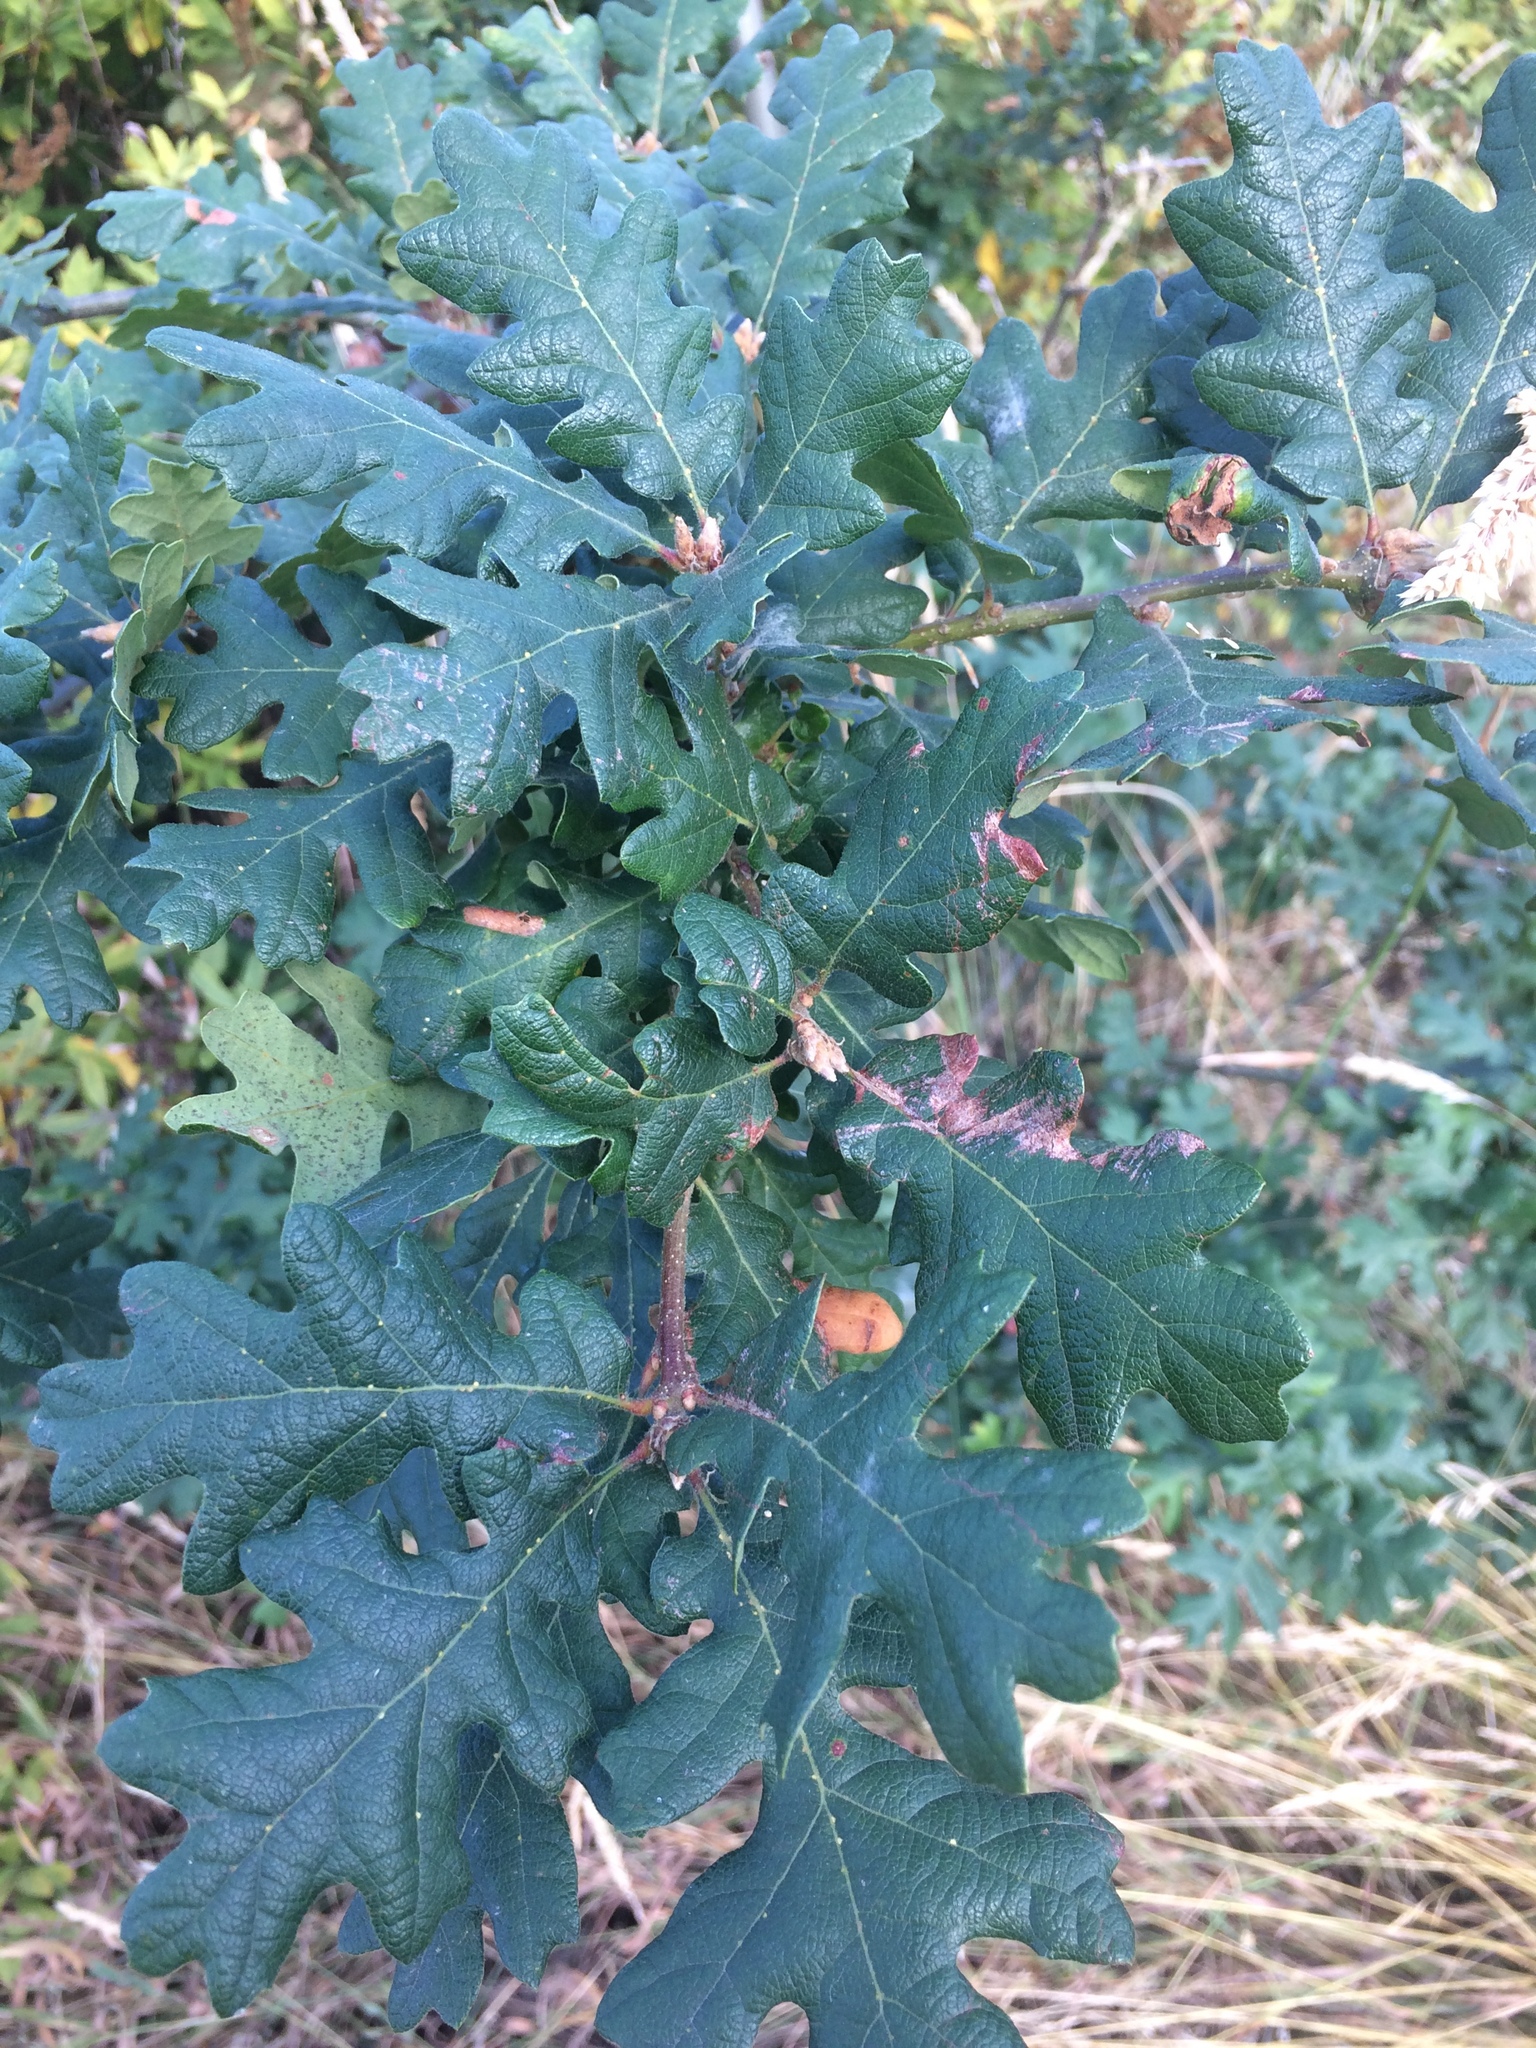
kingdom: Plantae
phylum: Tracheophyta
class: Magnoliopsida
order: Fagales
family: Fagaceae
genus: Quercus
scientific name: Quercus garryana
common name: Garry oak
